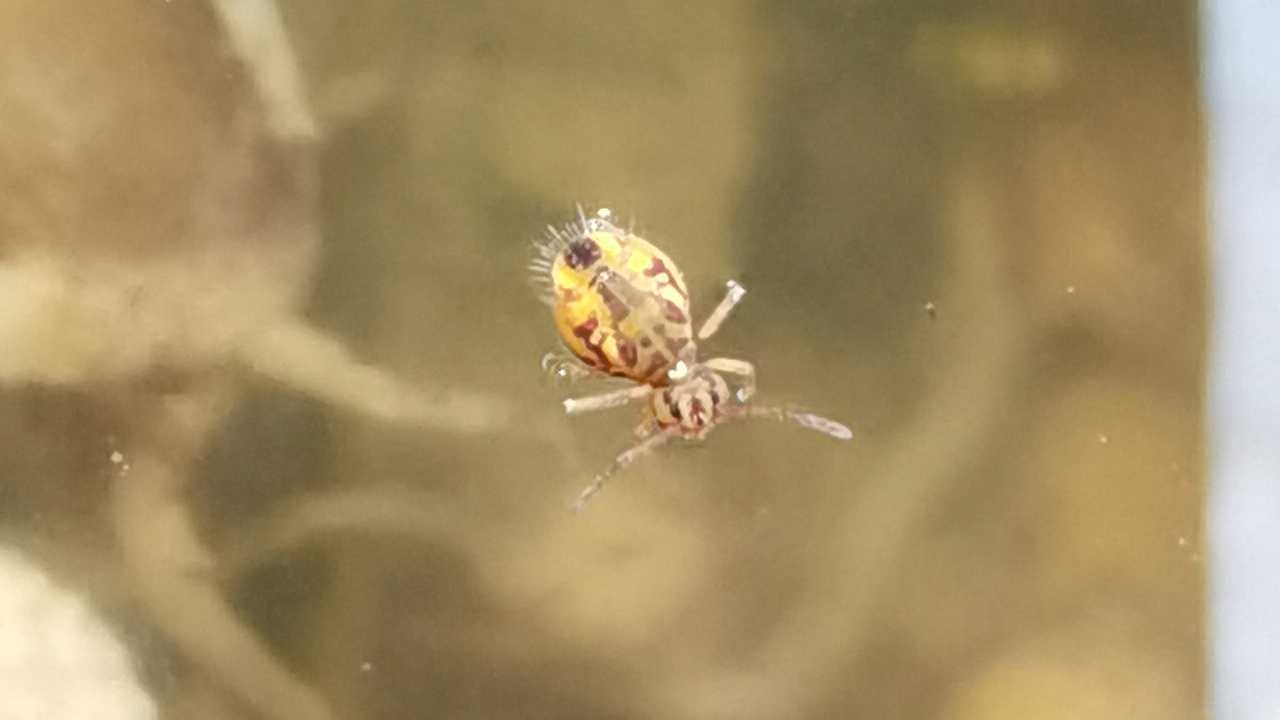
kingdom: Animalia
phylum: Arthropoda
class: Collembola
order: Symphypleona
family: Dicyrtomidae
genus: Dicyrtomina
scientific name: Dicyrtomina ornata
